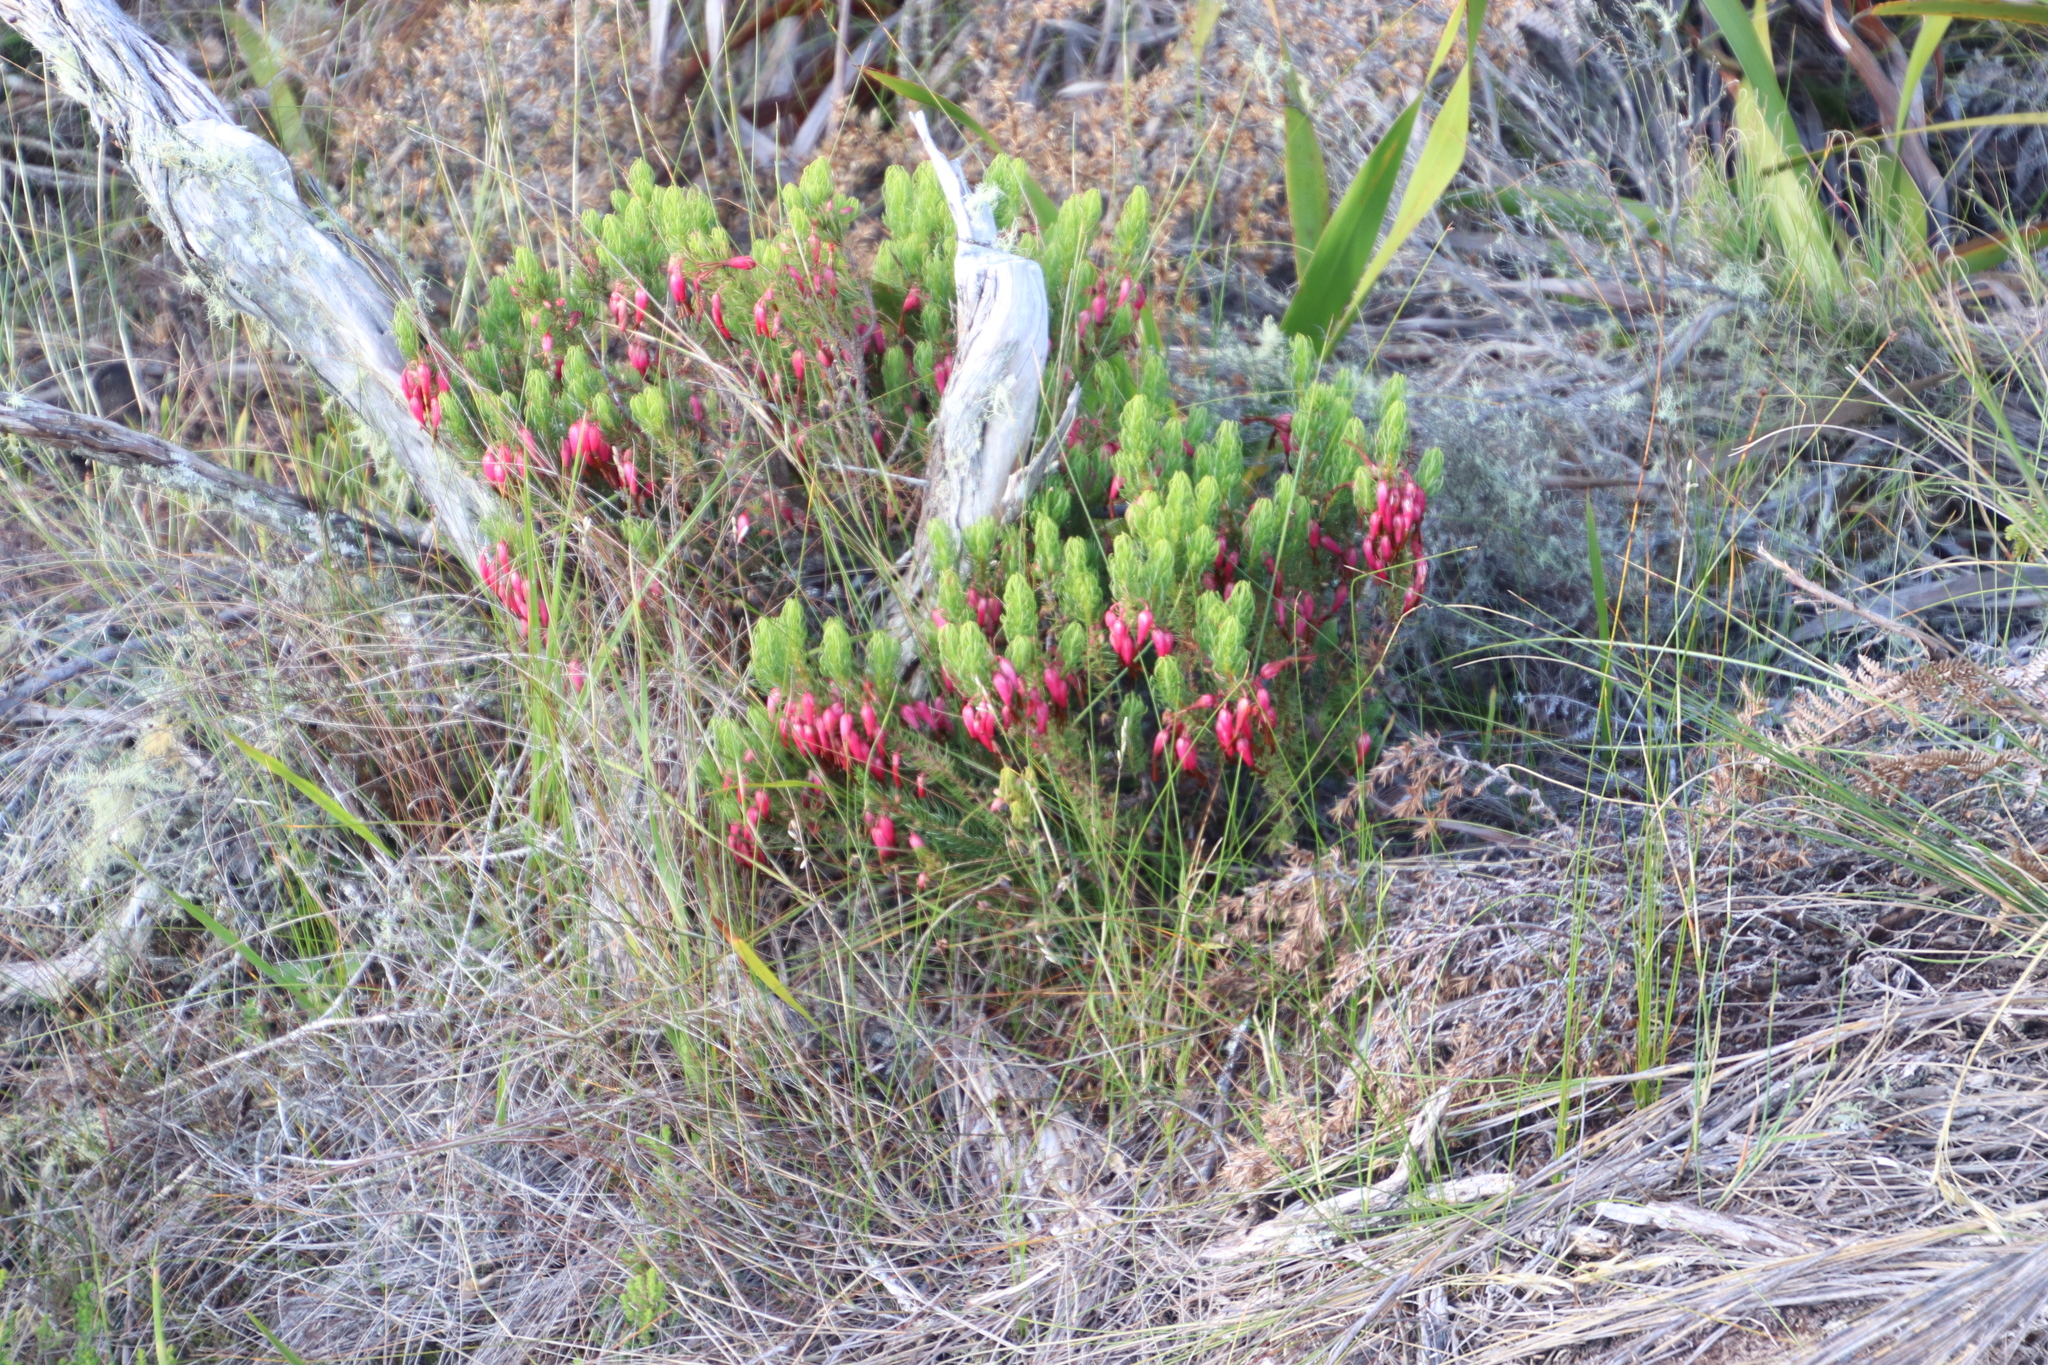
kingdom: Plantae
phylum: Tracheophyta
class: Magnoliopsida
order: Ericales
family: Ericaceae
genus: Erica
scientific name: Erica plukenetii
